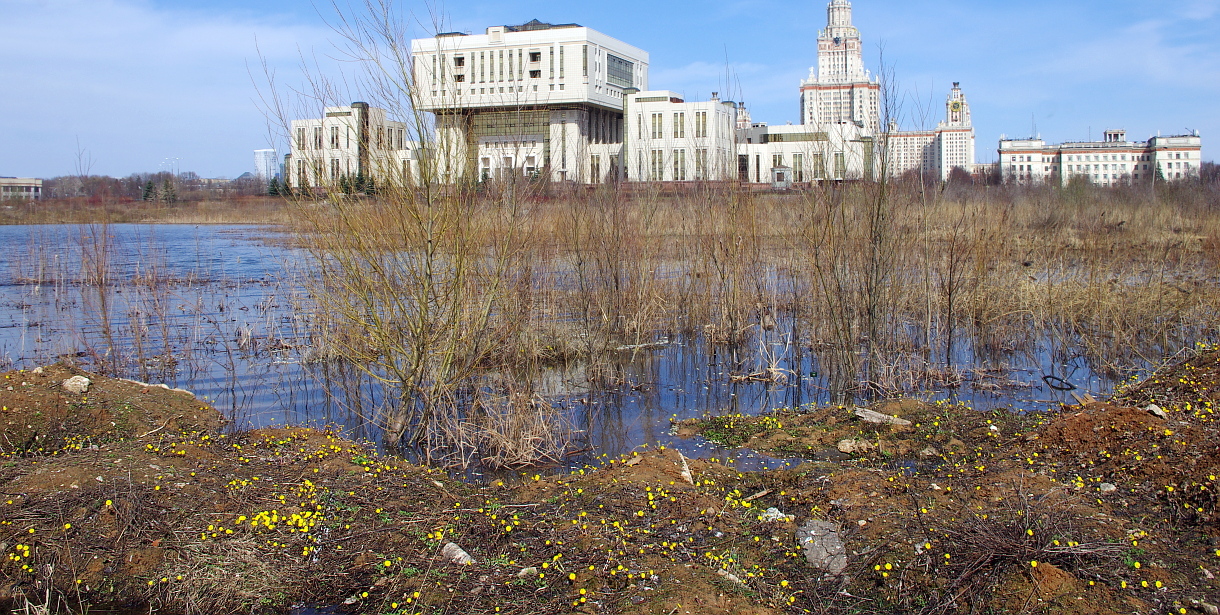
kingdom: Plantae
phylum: Tracheophyta
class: Magnoliopsida
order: Asterales
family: Asteraceae
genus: Tussilago
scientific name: Tussilago farfara
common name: Coltsfoot
